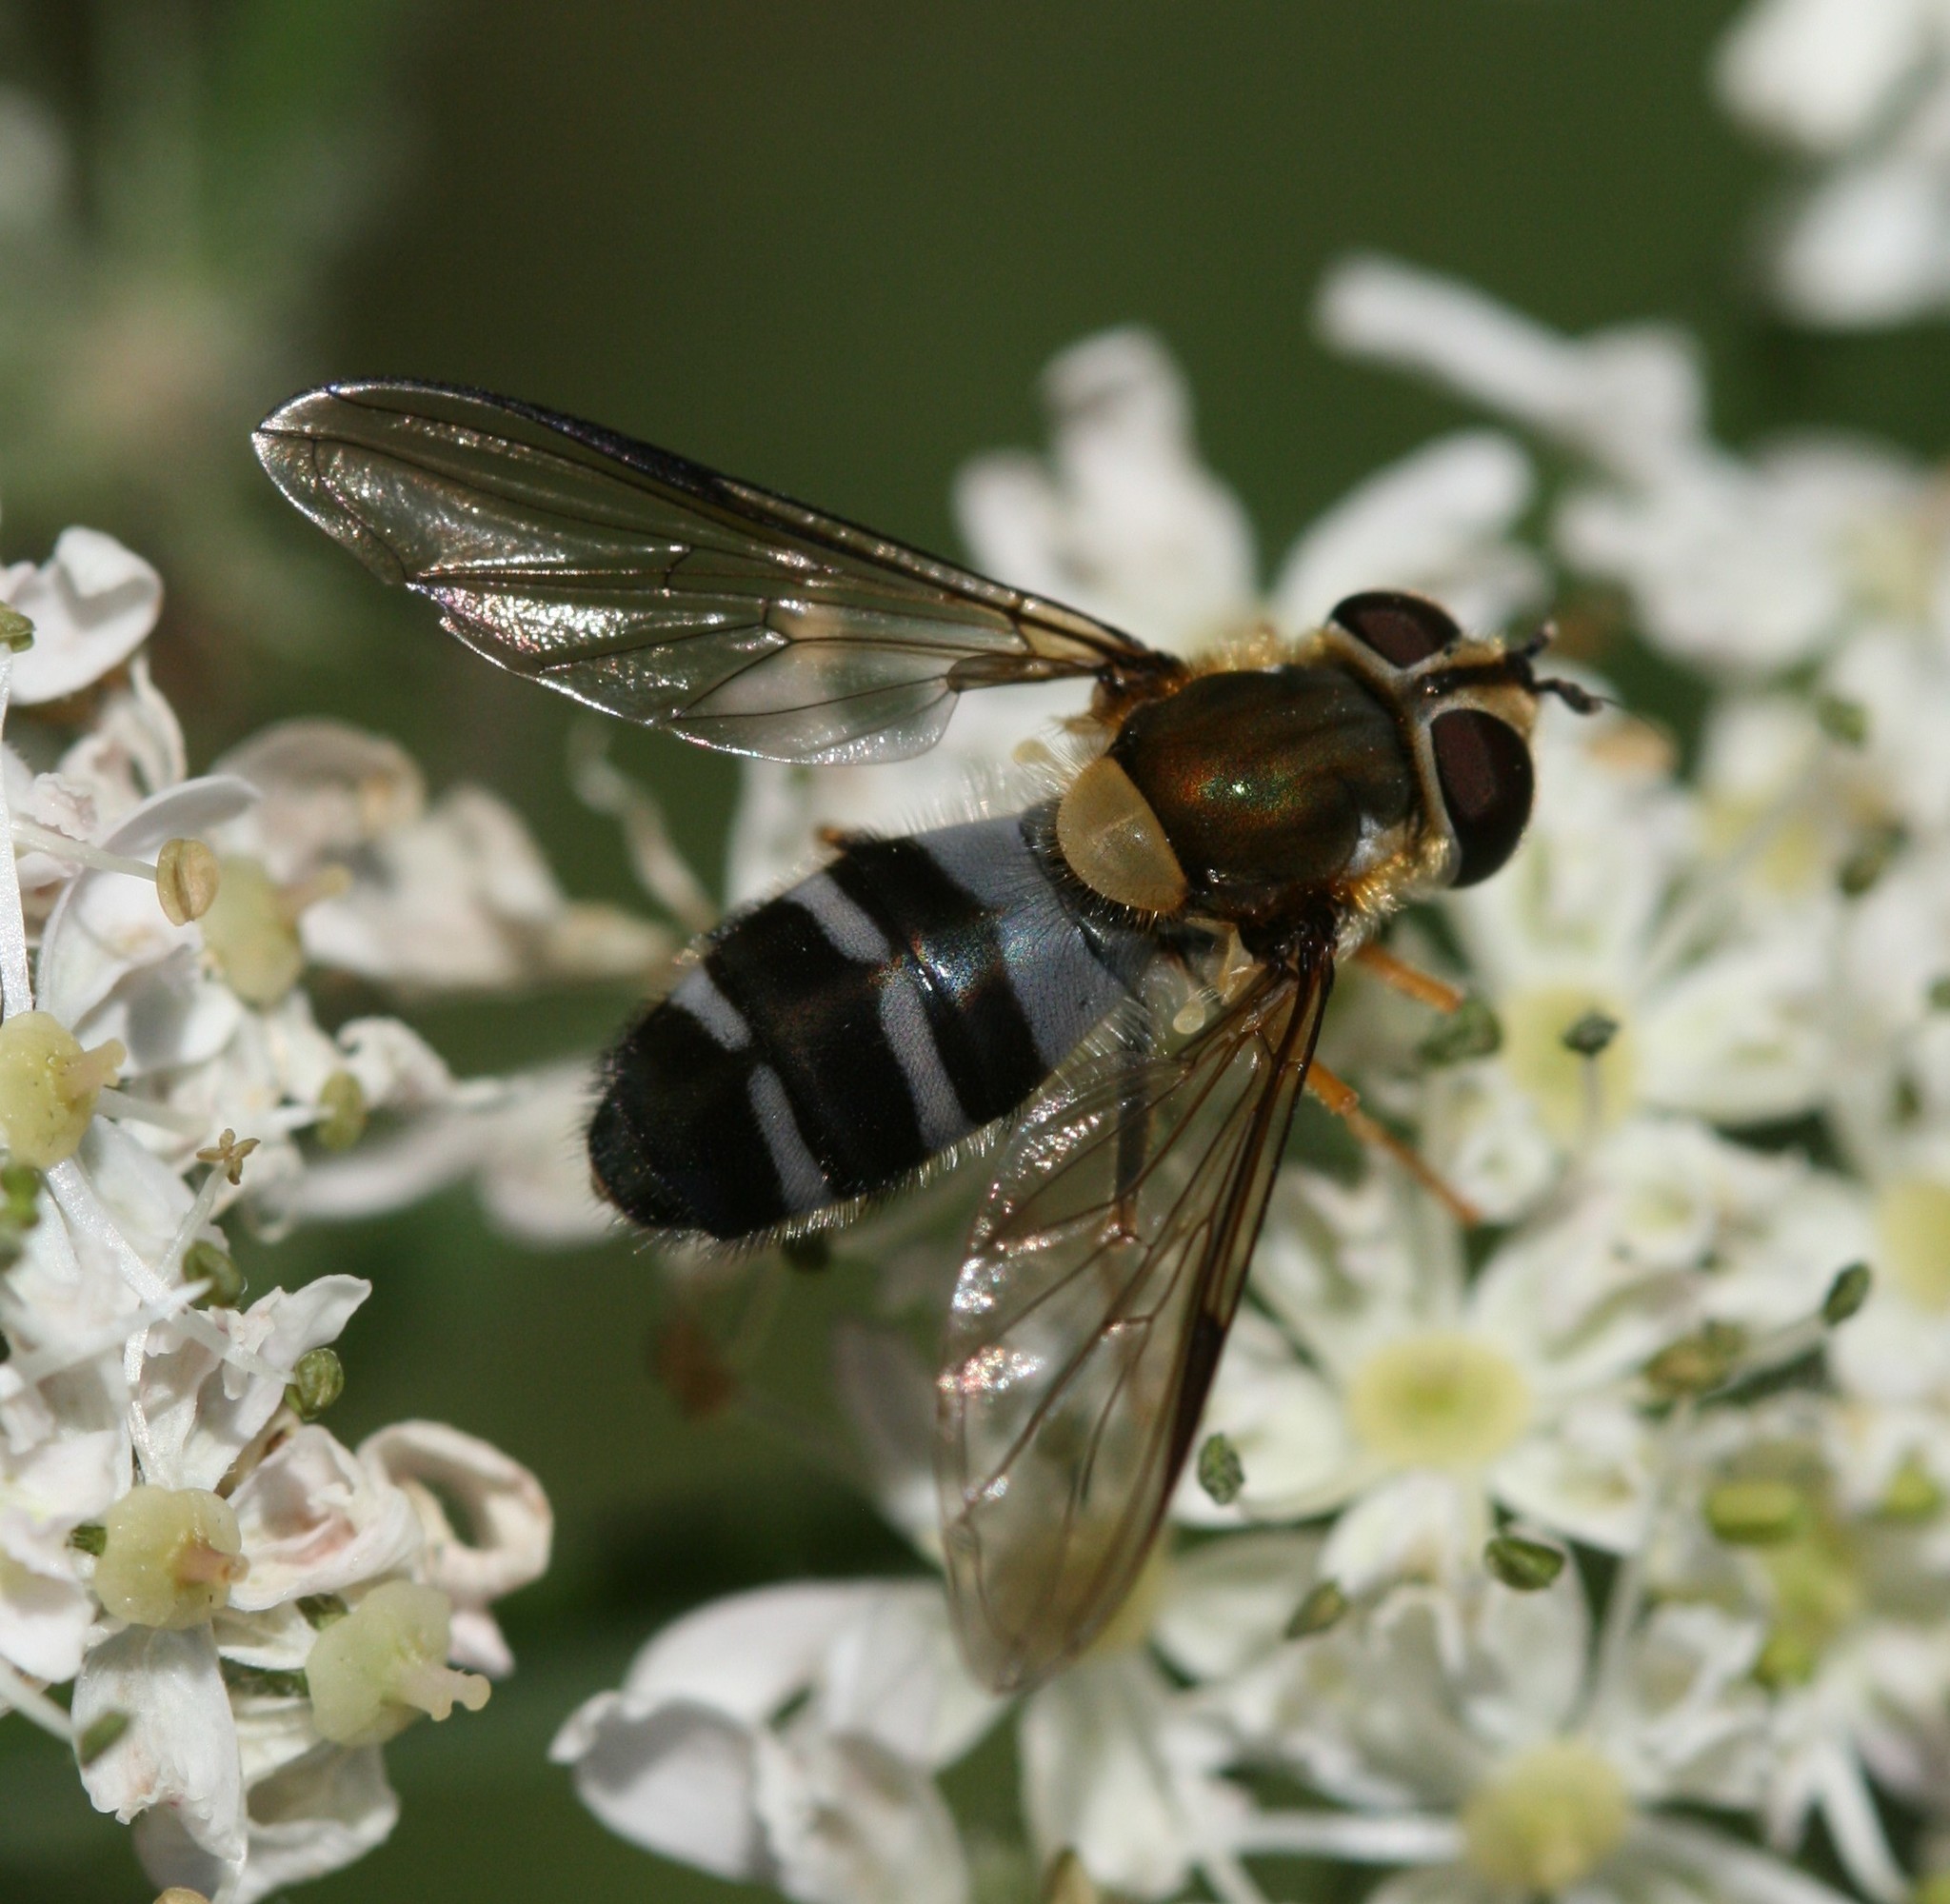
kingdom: Animalia
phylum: Arthropoda
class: Insecta
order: Diptera
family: Syrphidae
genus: Leucozona
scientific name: Leucozona glaucia
